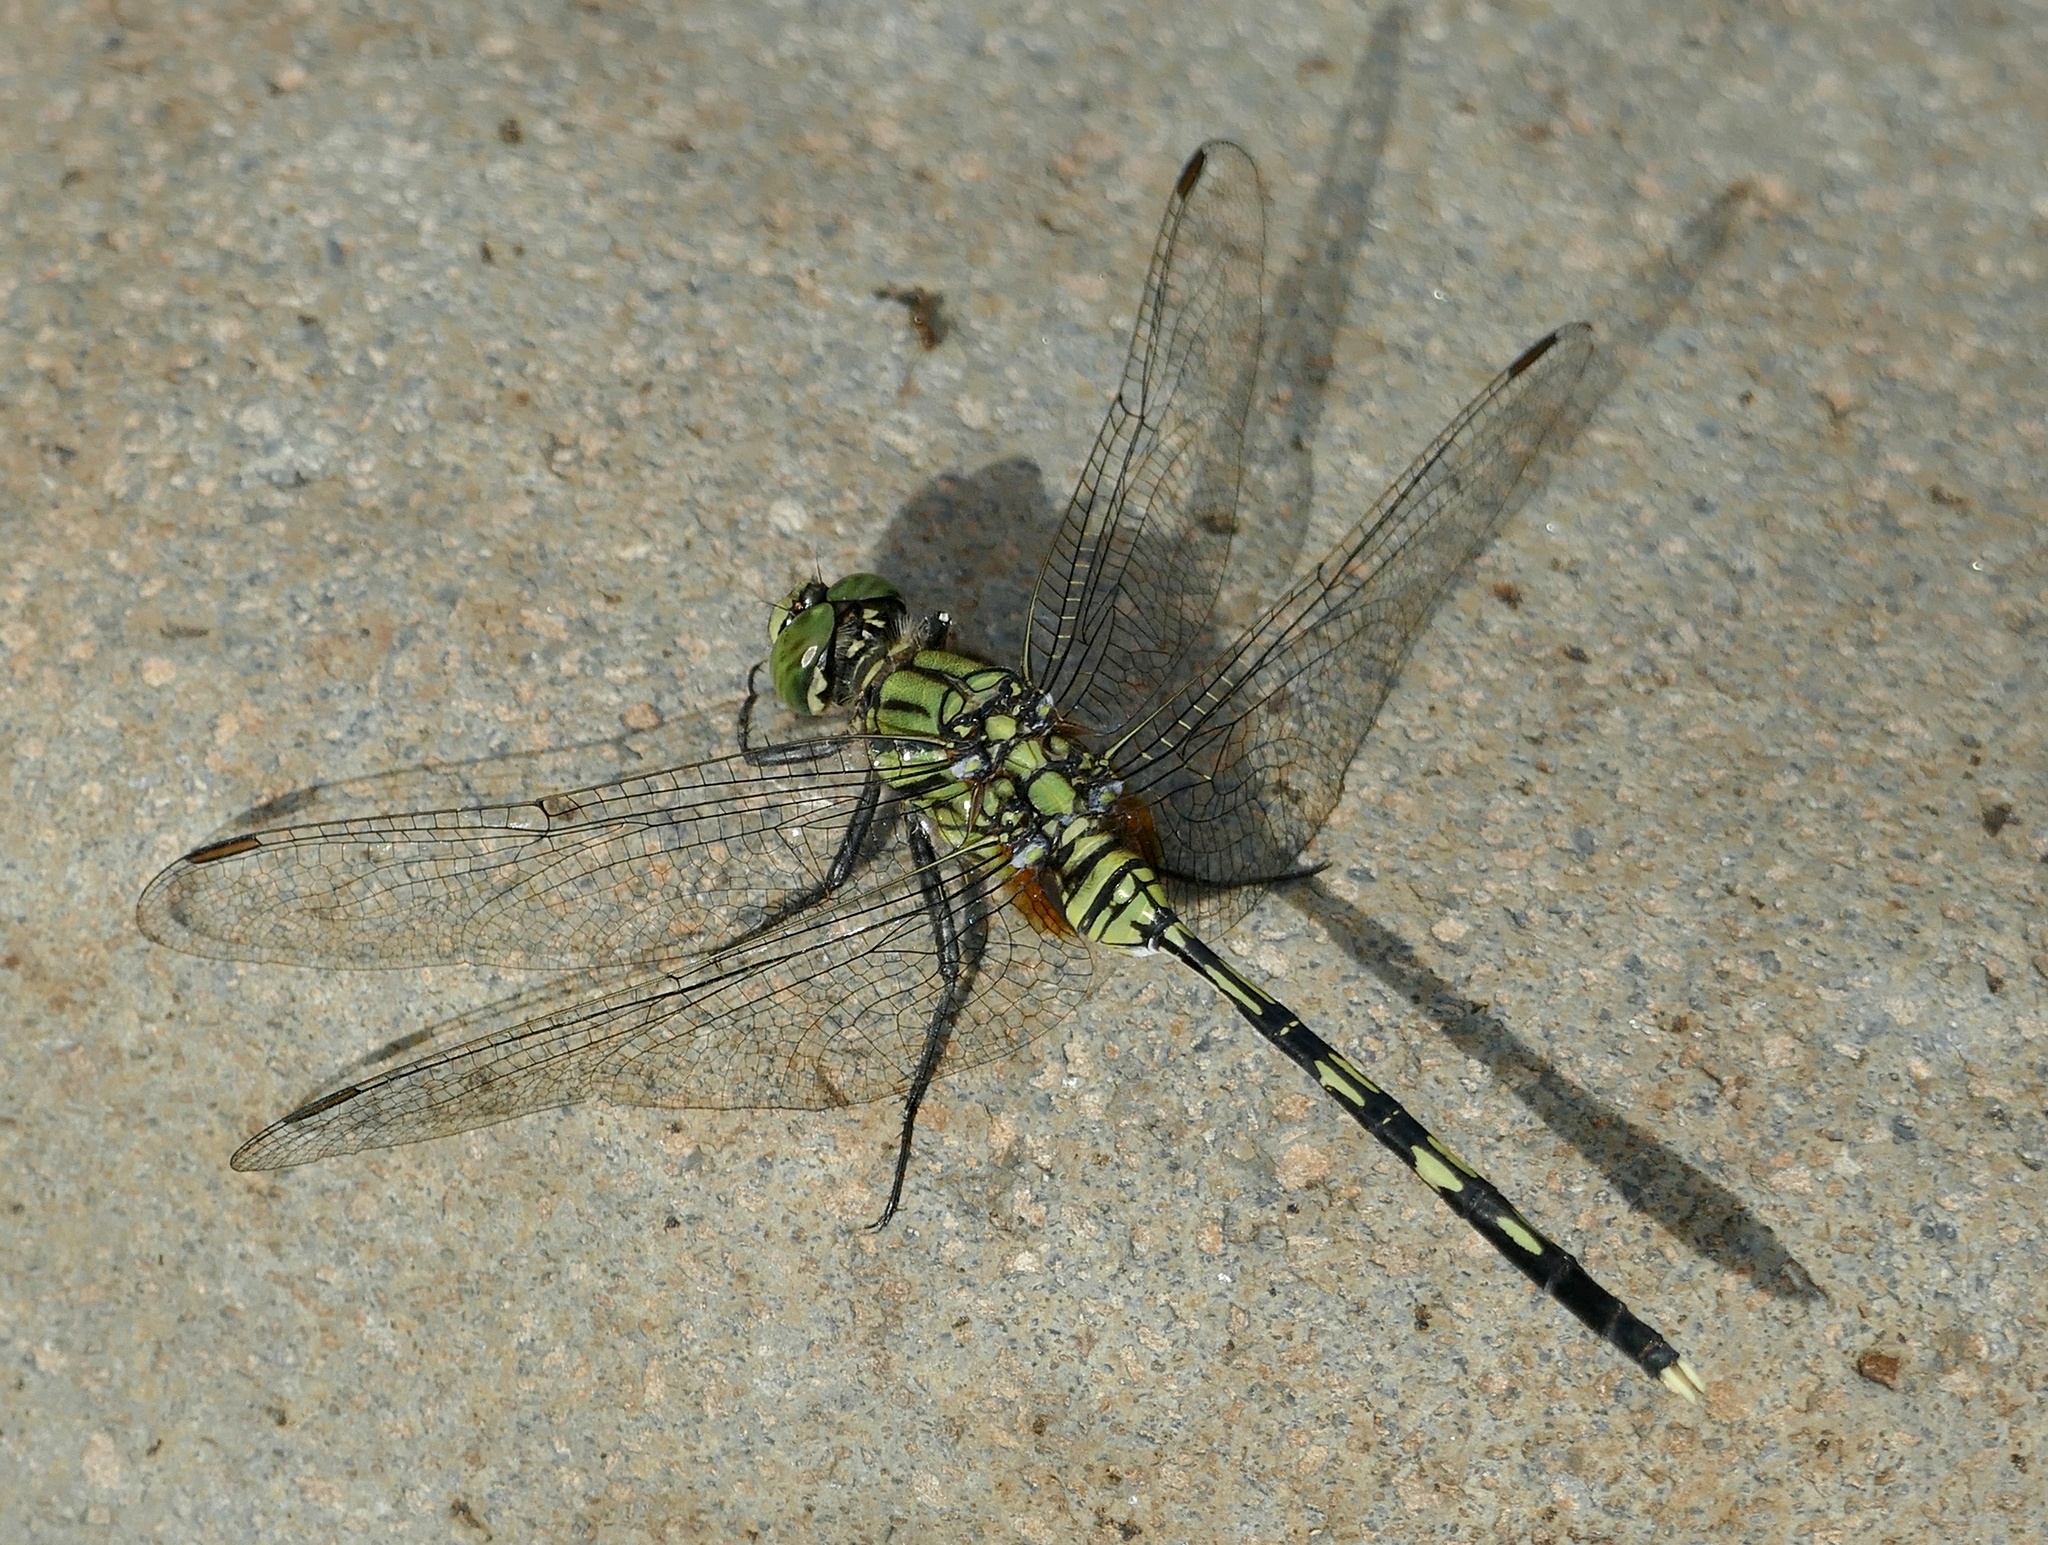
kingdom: Animalia
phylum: Arthropoda
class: Insecta
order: Odonata
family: Libellulidae
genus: Orthetrum
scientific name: Orthetrum serapia
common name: Green skimmer
